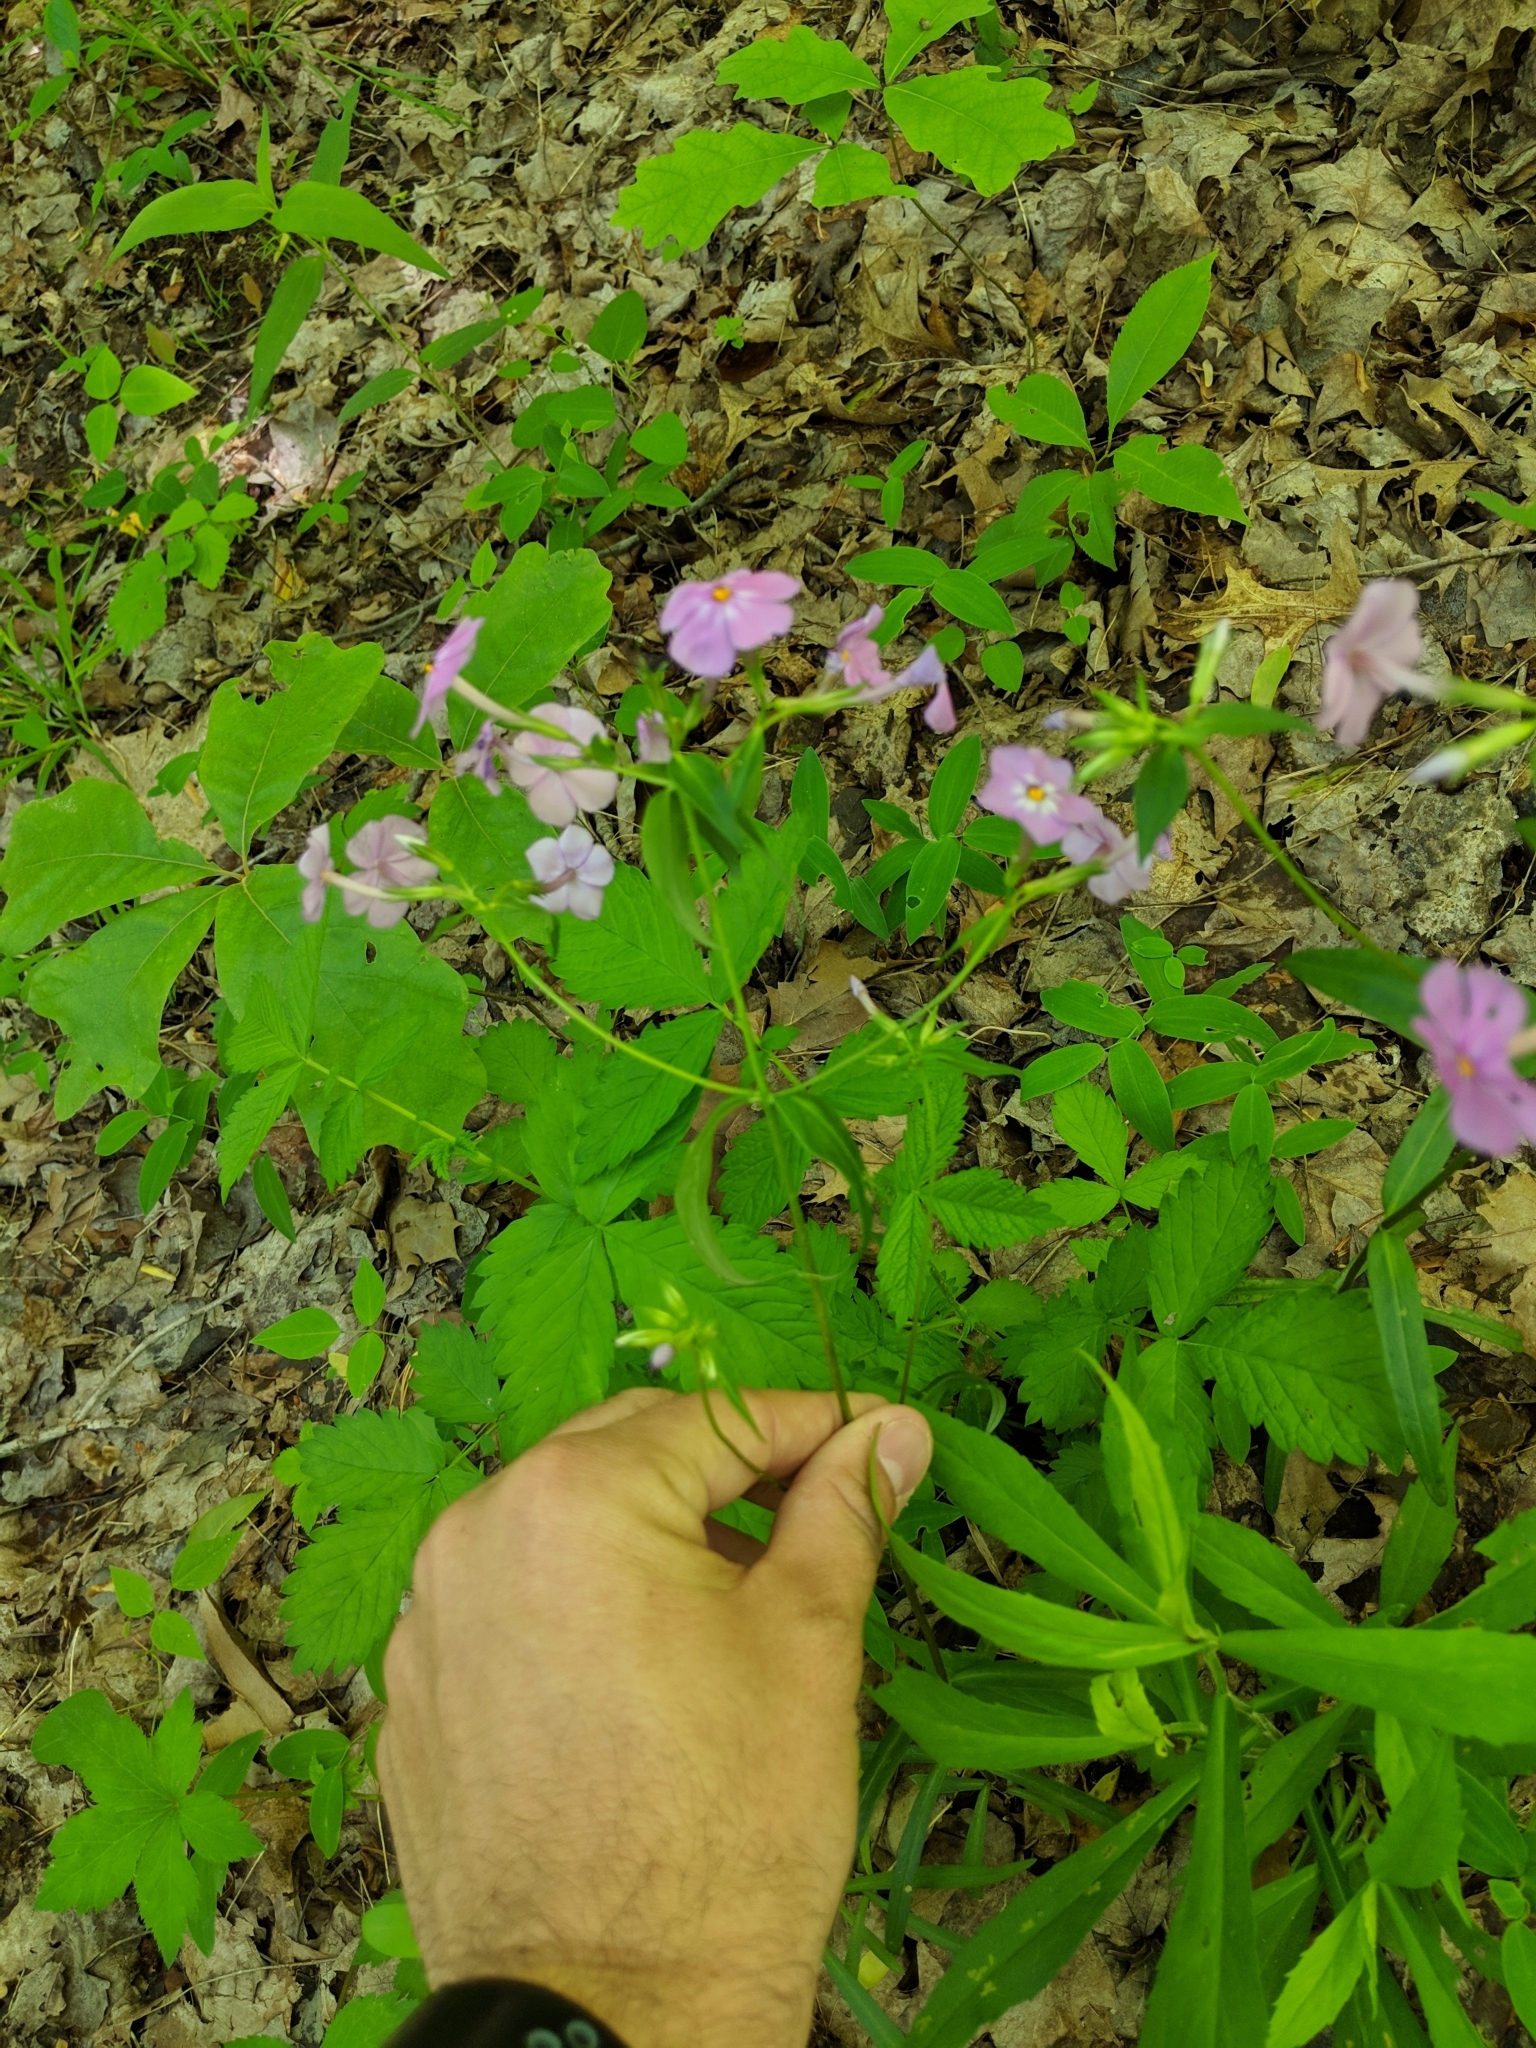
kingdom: Plantae
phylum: Tracheophyta
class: Magnoliopsida
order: Ericales
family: Polemoniaceae
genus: Phlox
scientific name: Phlox glaberrima
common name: Smooth phlox
